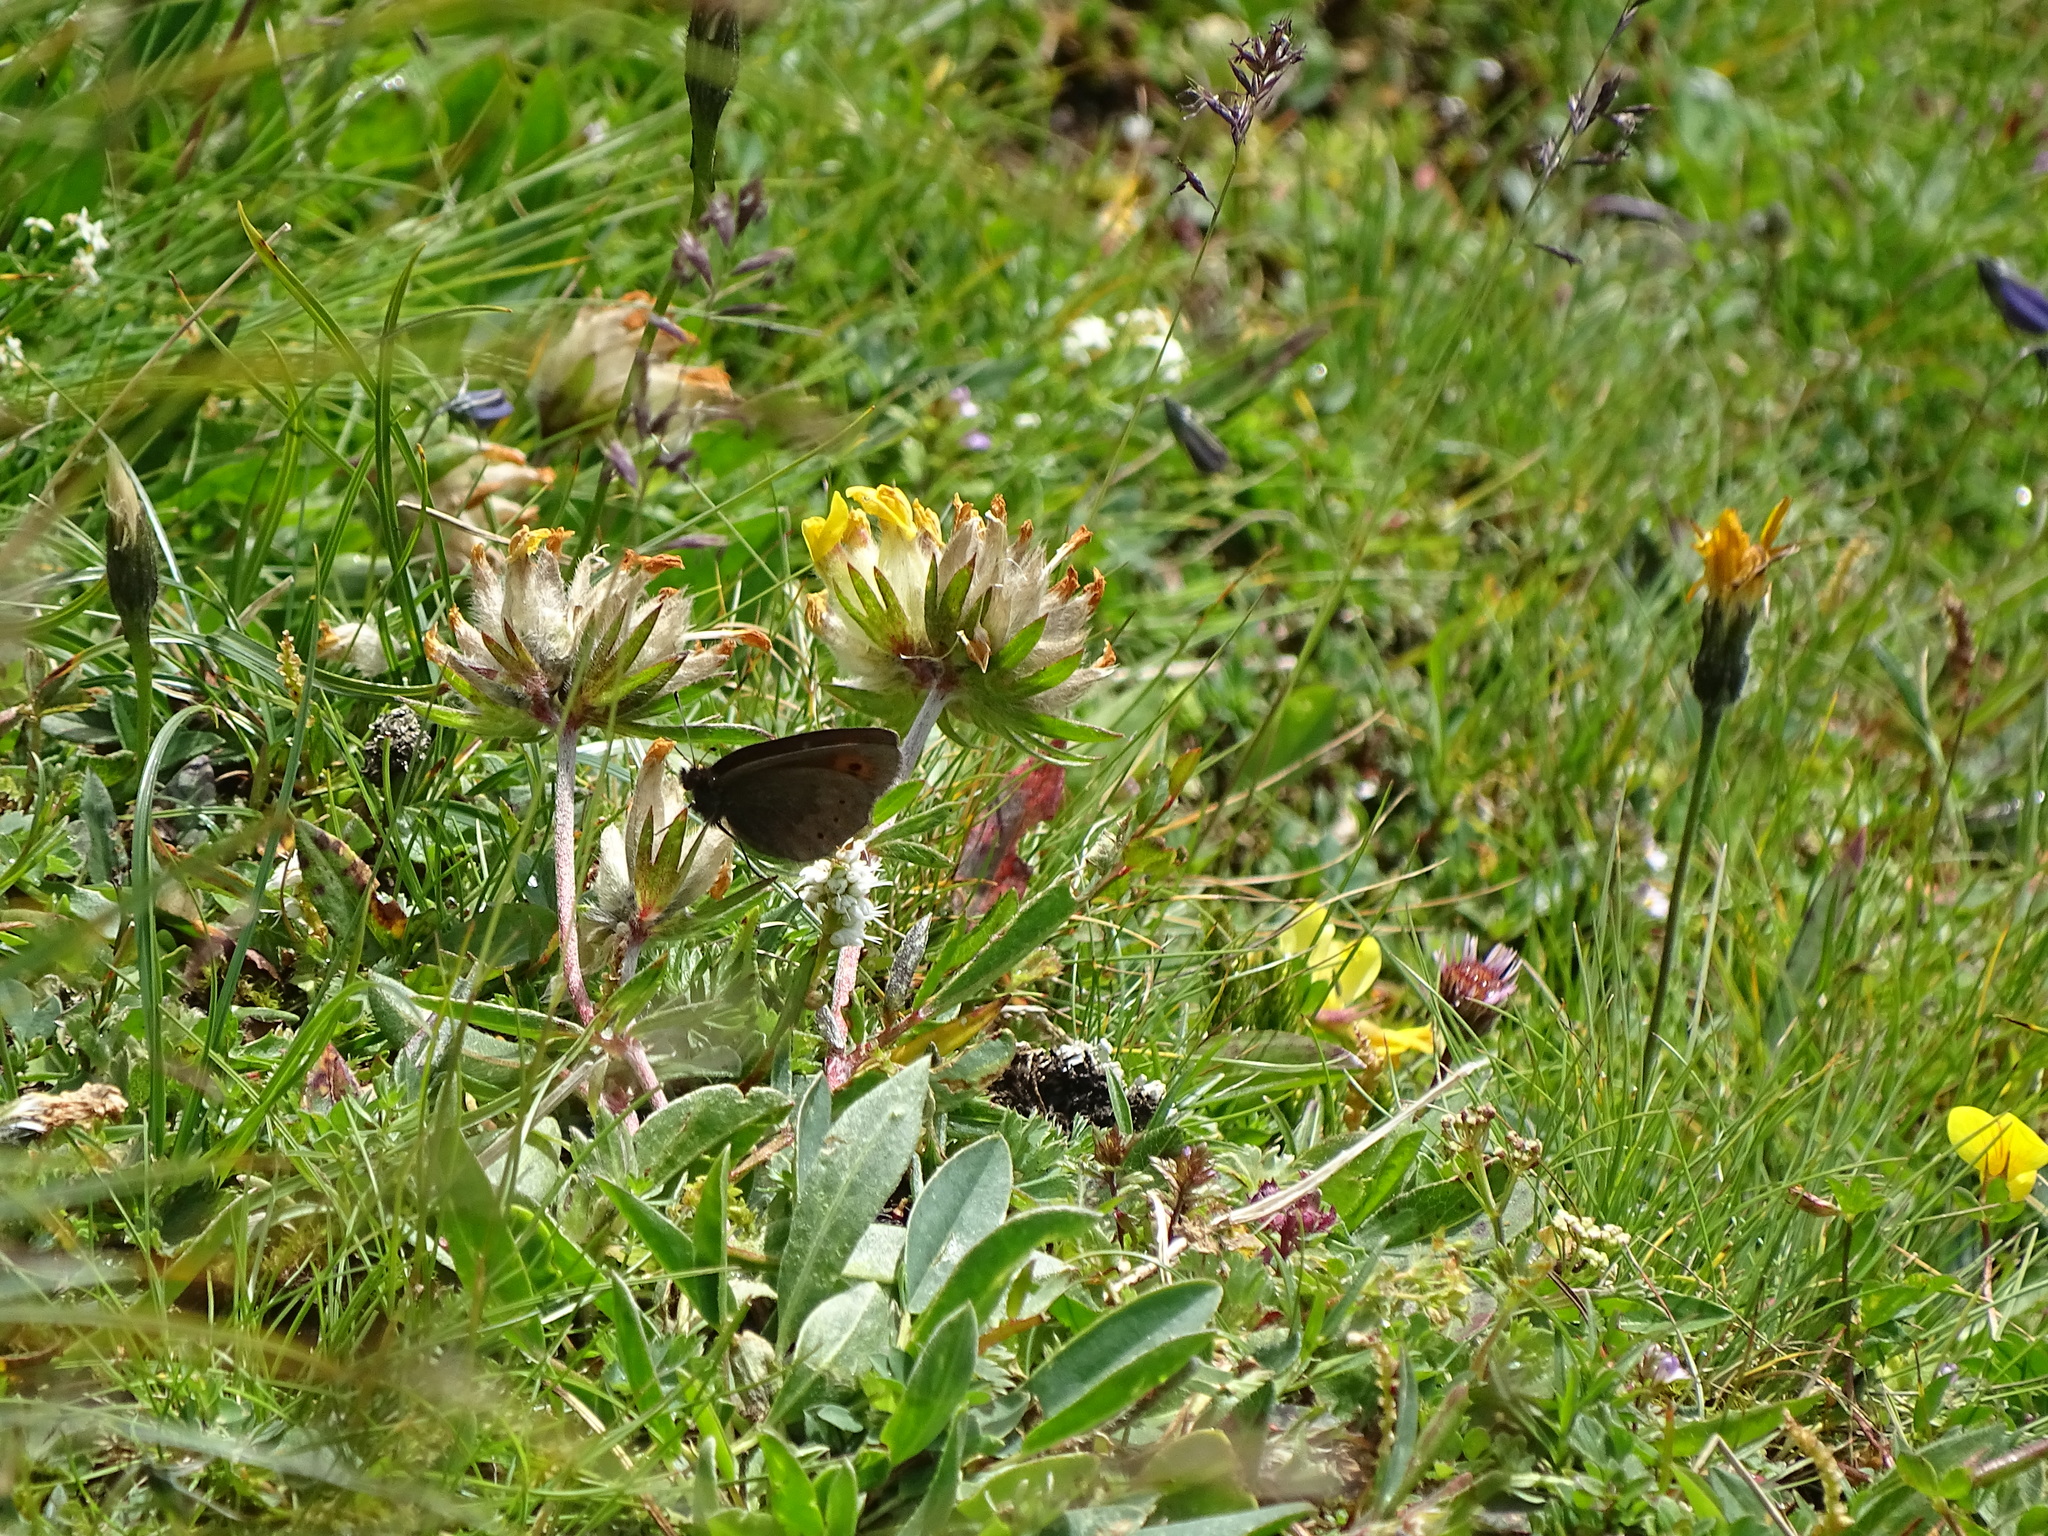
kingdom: Animalia
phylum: Arthropoda
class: Insecta
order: Lepidoptera
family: Nymphalidae
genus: Erebia
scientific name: Erebia epiphron
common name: Mountain ringlet
